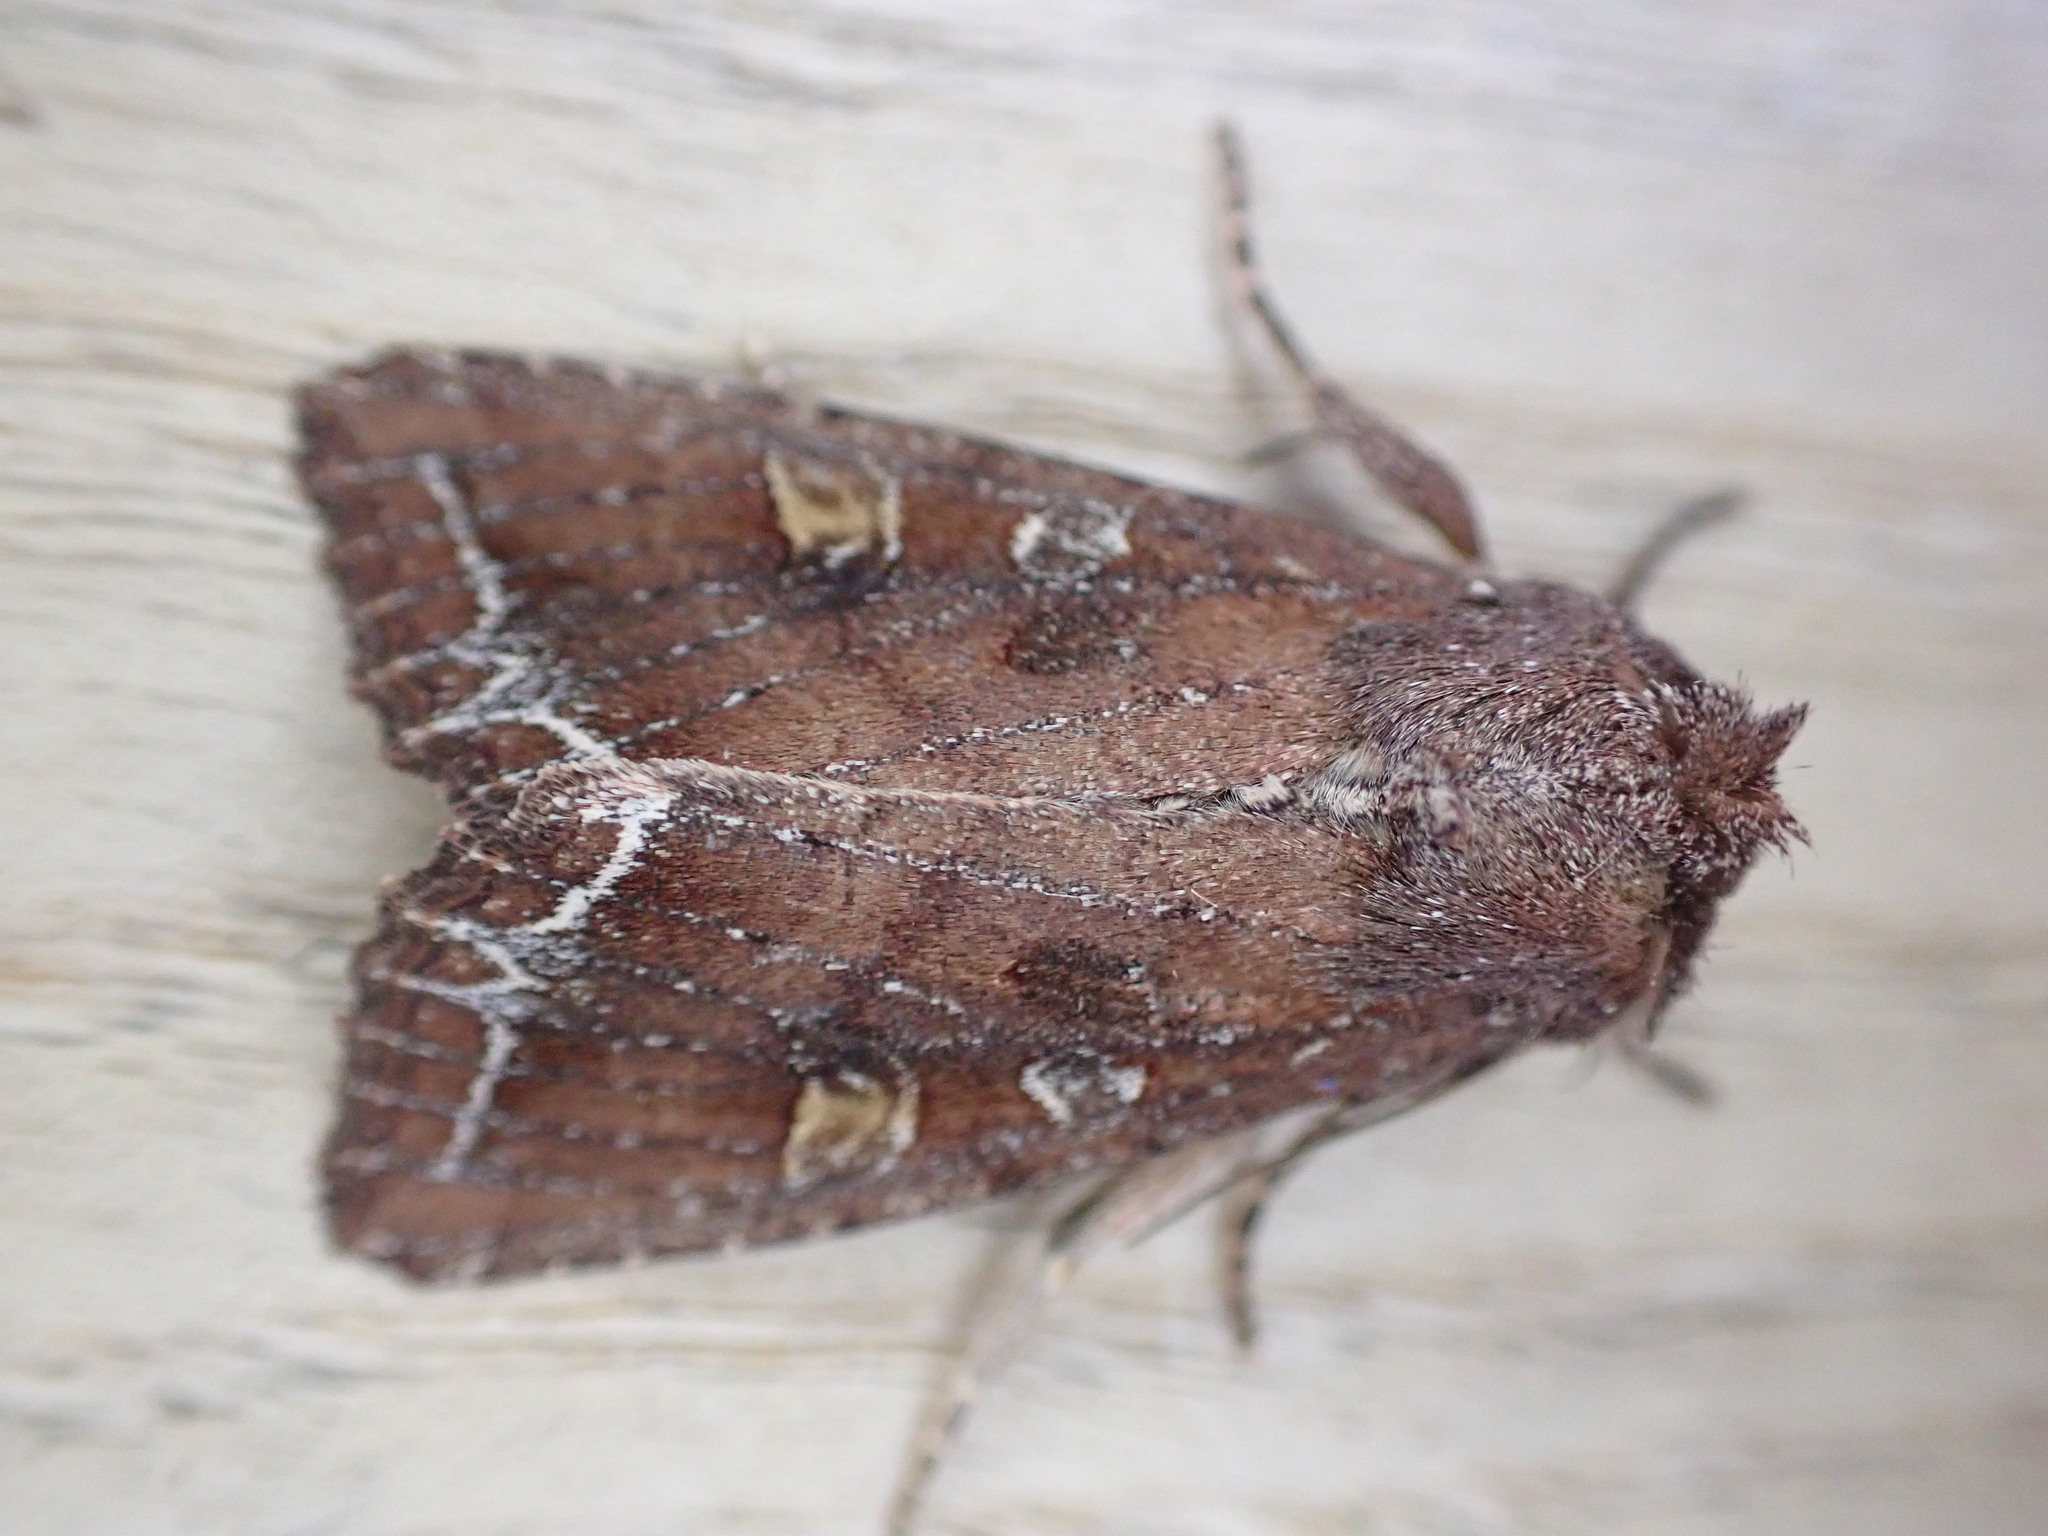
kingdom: Animalia
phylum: Arthropoda
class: Insecta
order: Lepidoptera
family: Noctuidae
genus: Lacanobia
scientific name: Lacanobia oleracea
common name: Bright-line brown-eye
